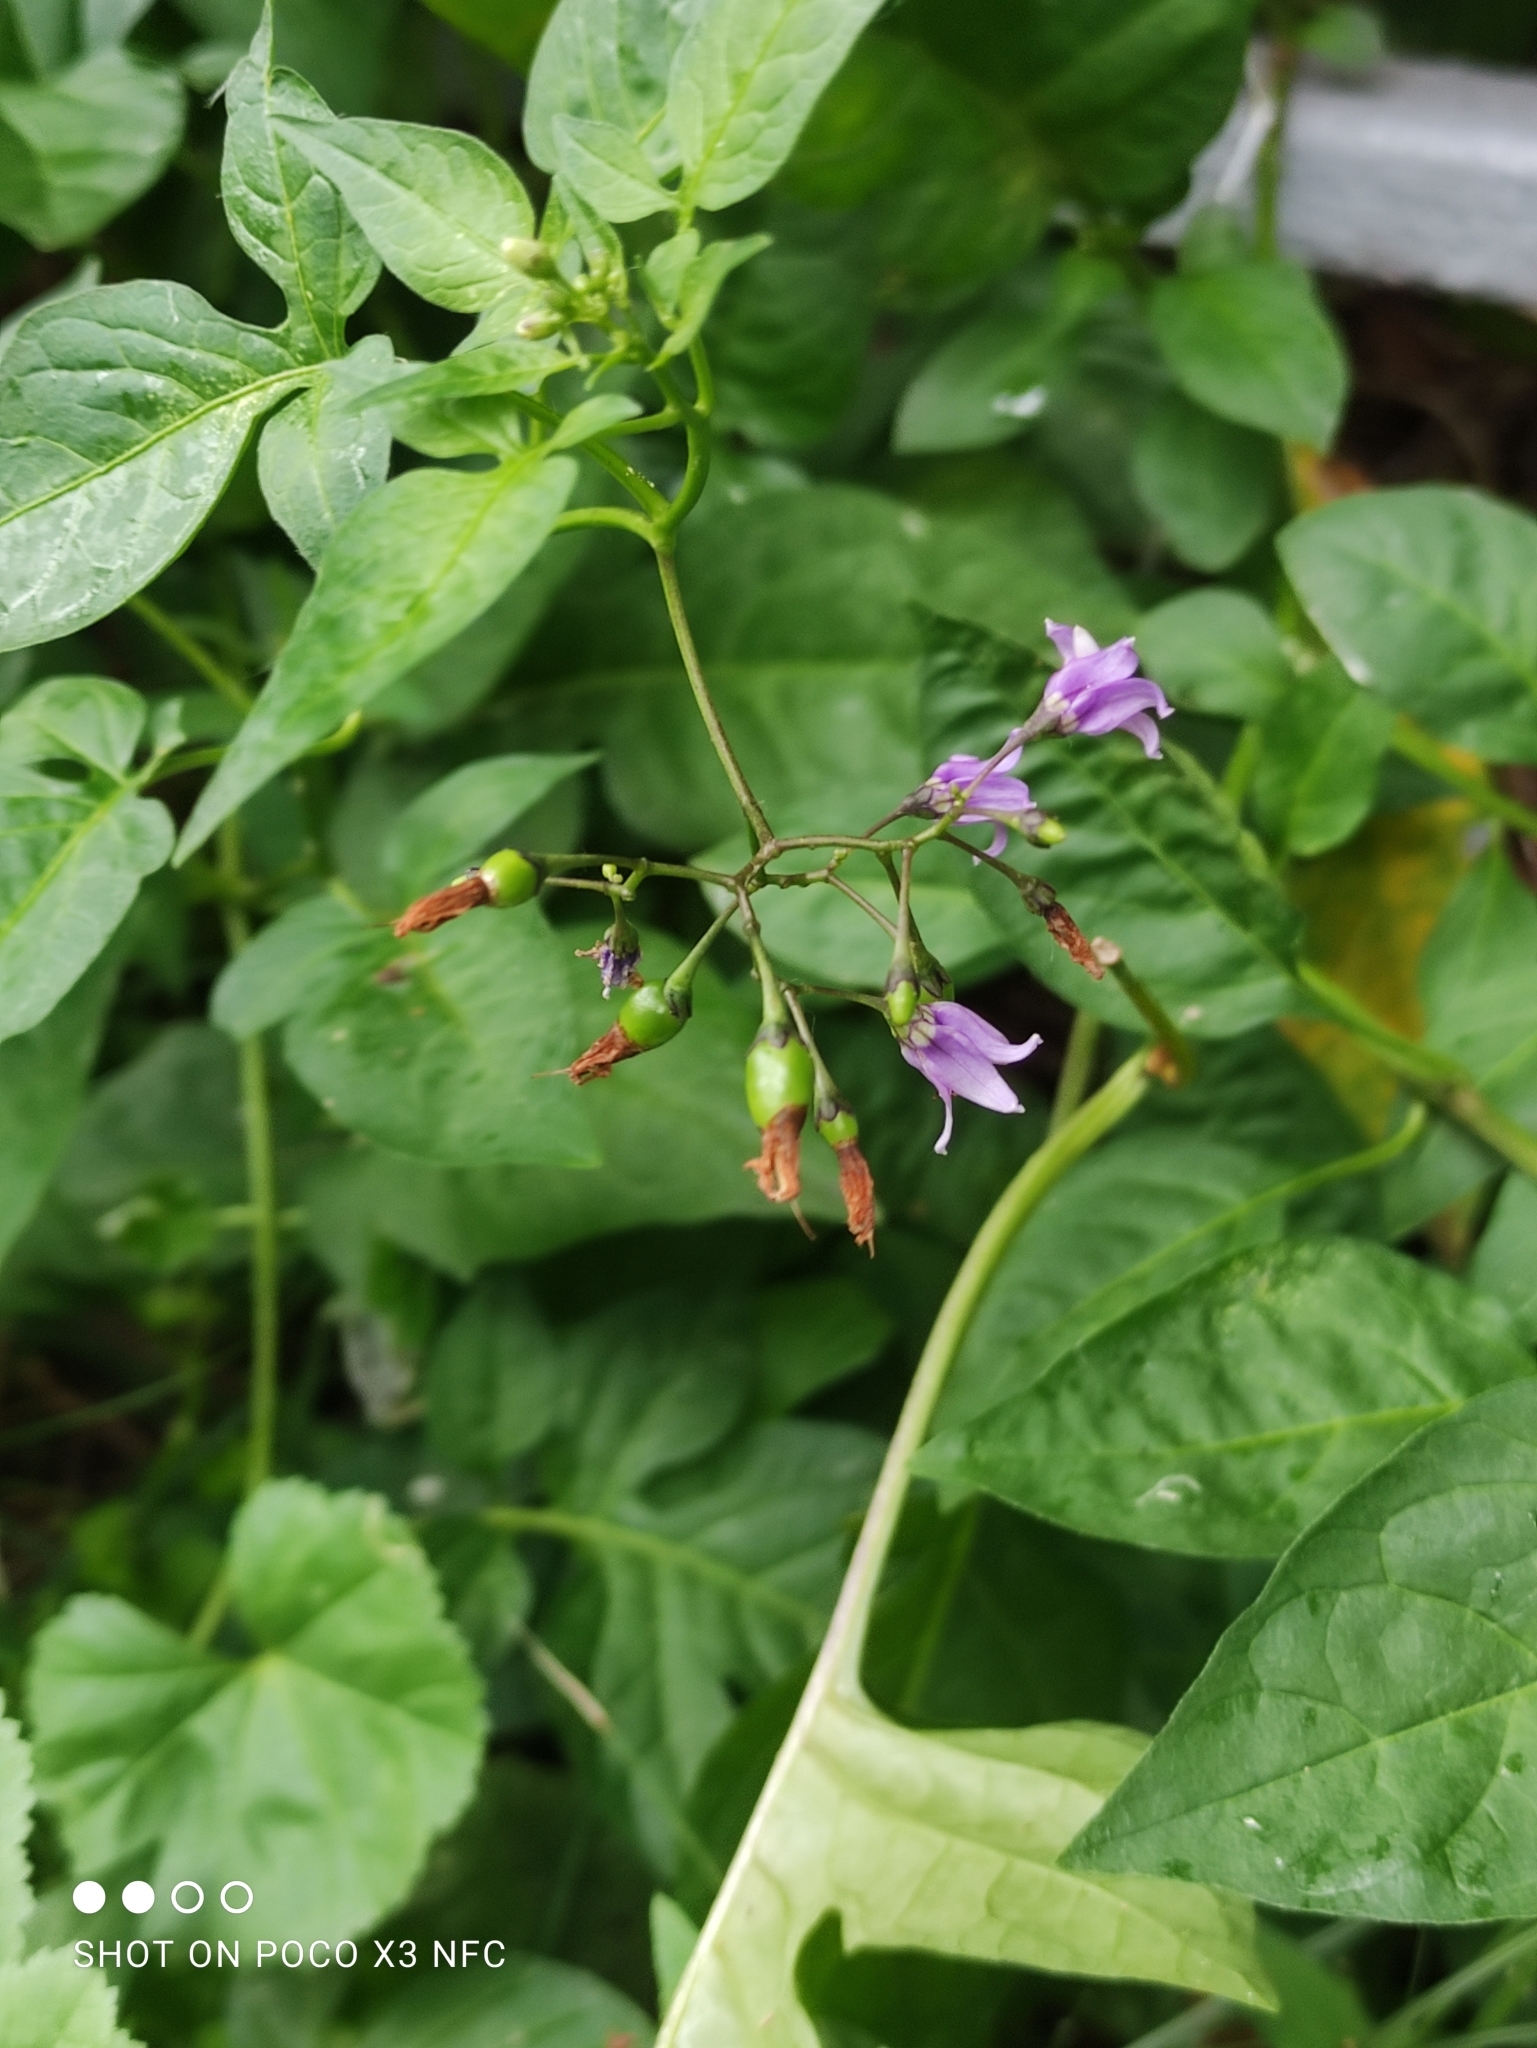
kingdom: Plantae
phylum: Tracheophyta
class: Magnoliopsida
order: Solanales
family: Solanaceae
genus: Solanum
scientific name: Solanum dulcamara
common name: Climbing nightshade
